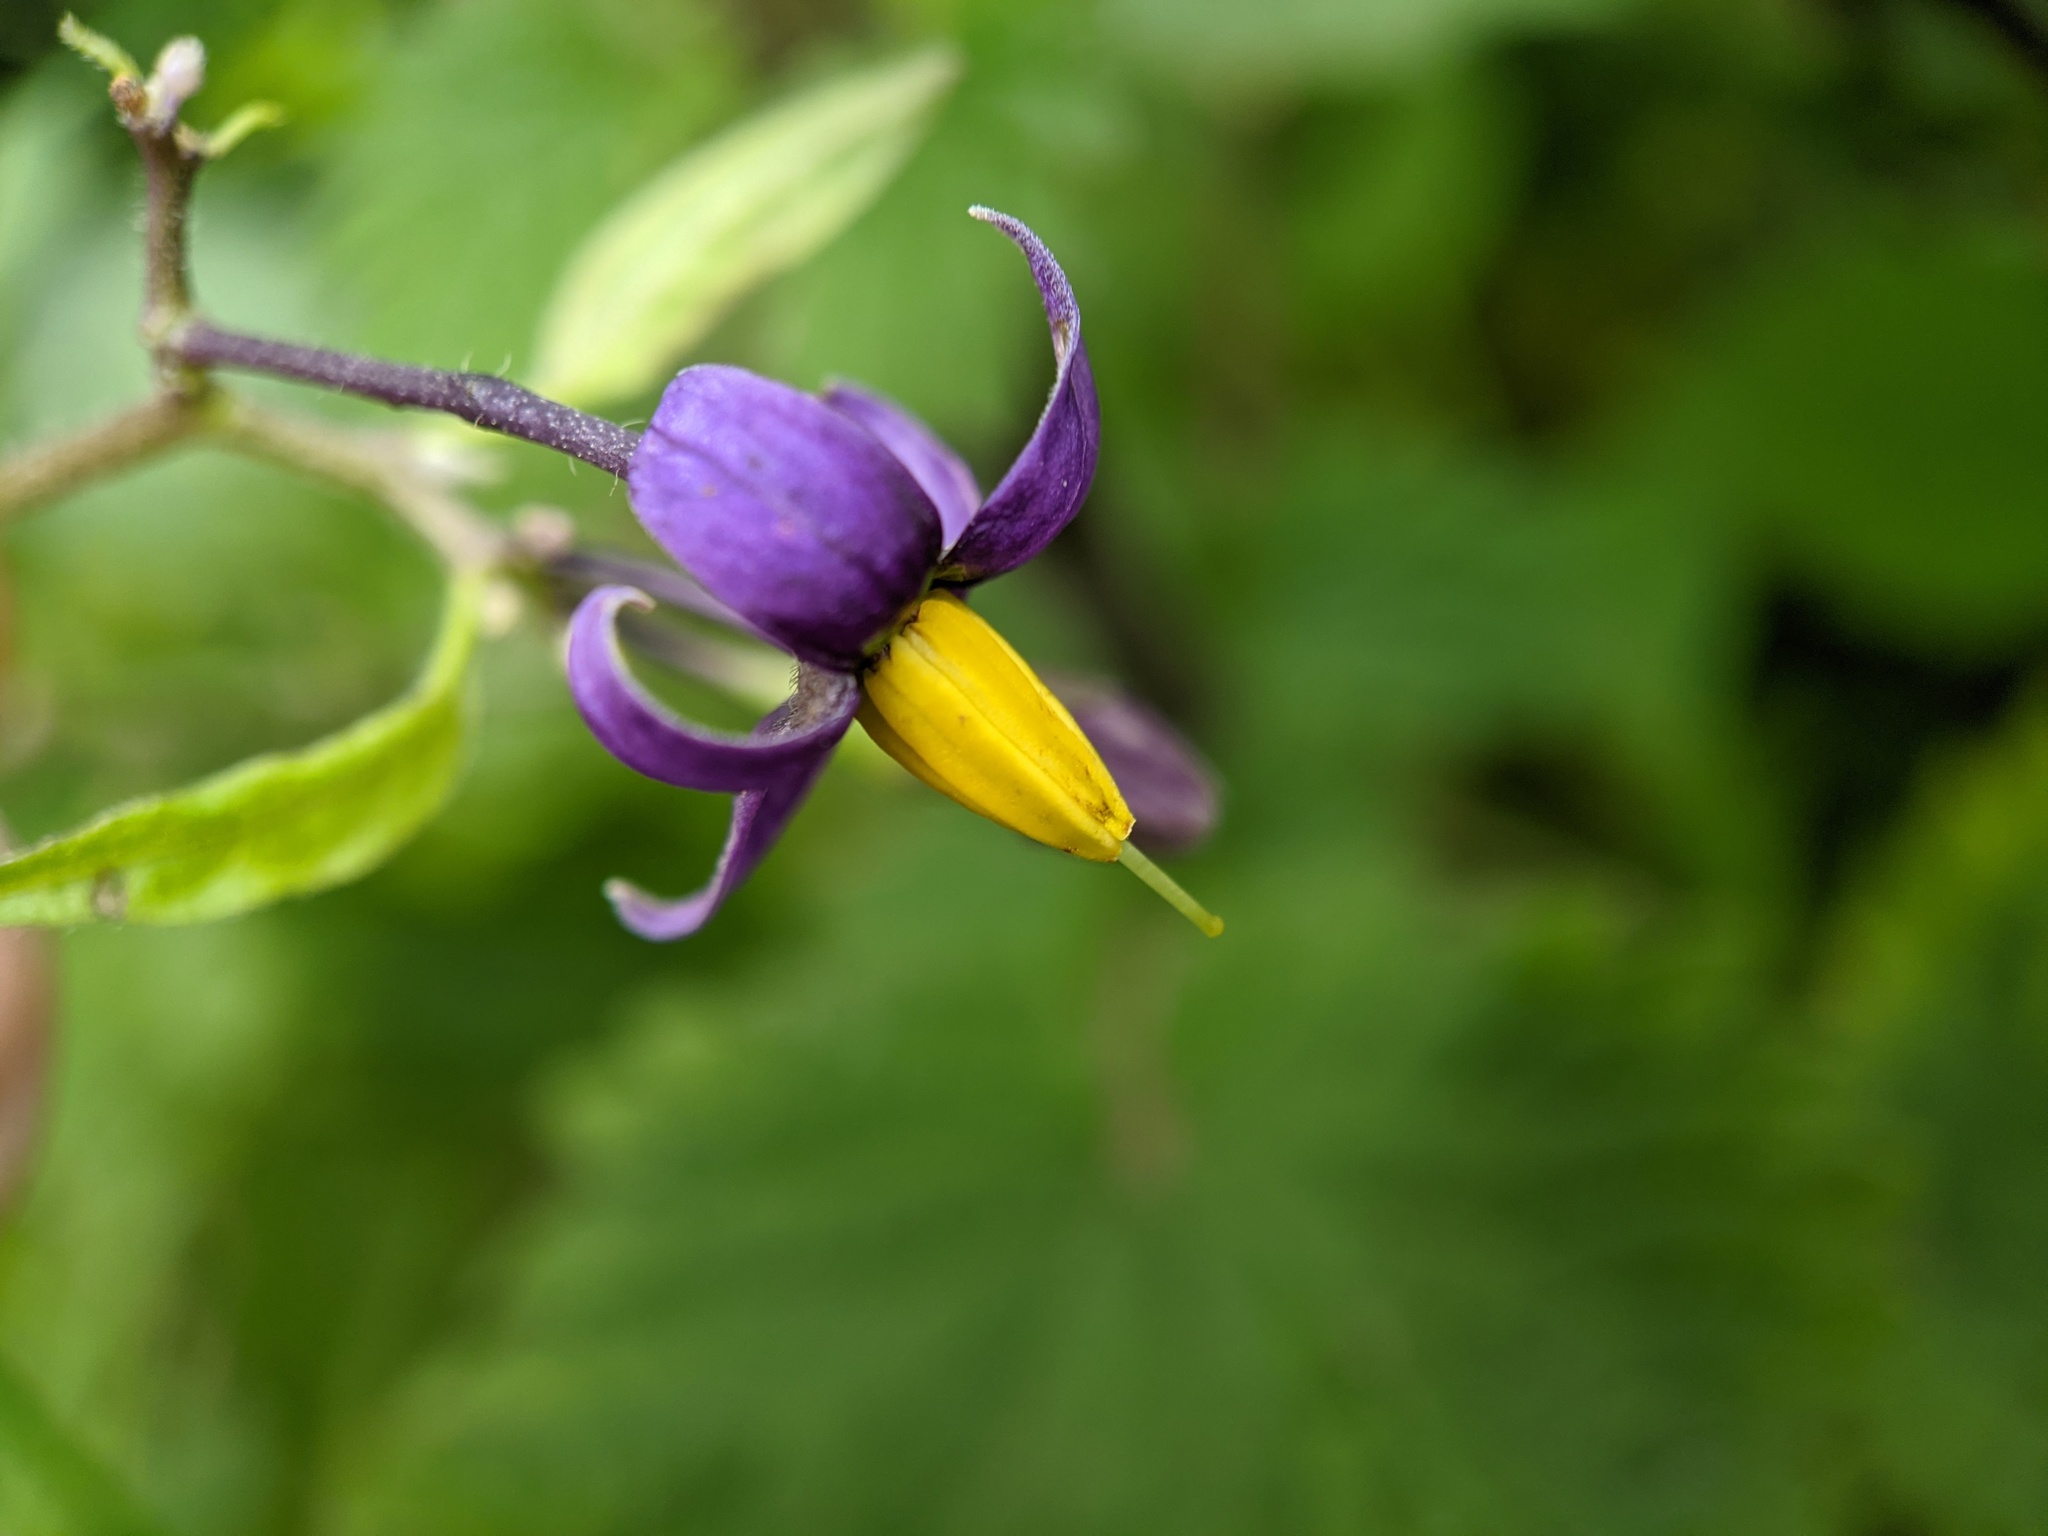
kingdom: Plantae
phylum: Tracheophyta
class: Magnoliopsida
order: Solanales
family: Solanaceae
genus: Solanum
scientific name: Solanum dulcamara
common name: Climbing nightshade
